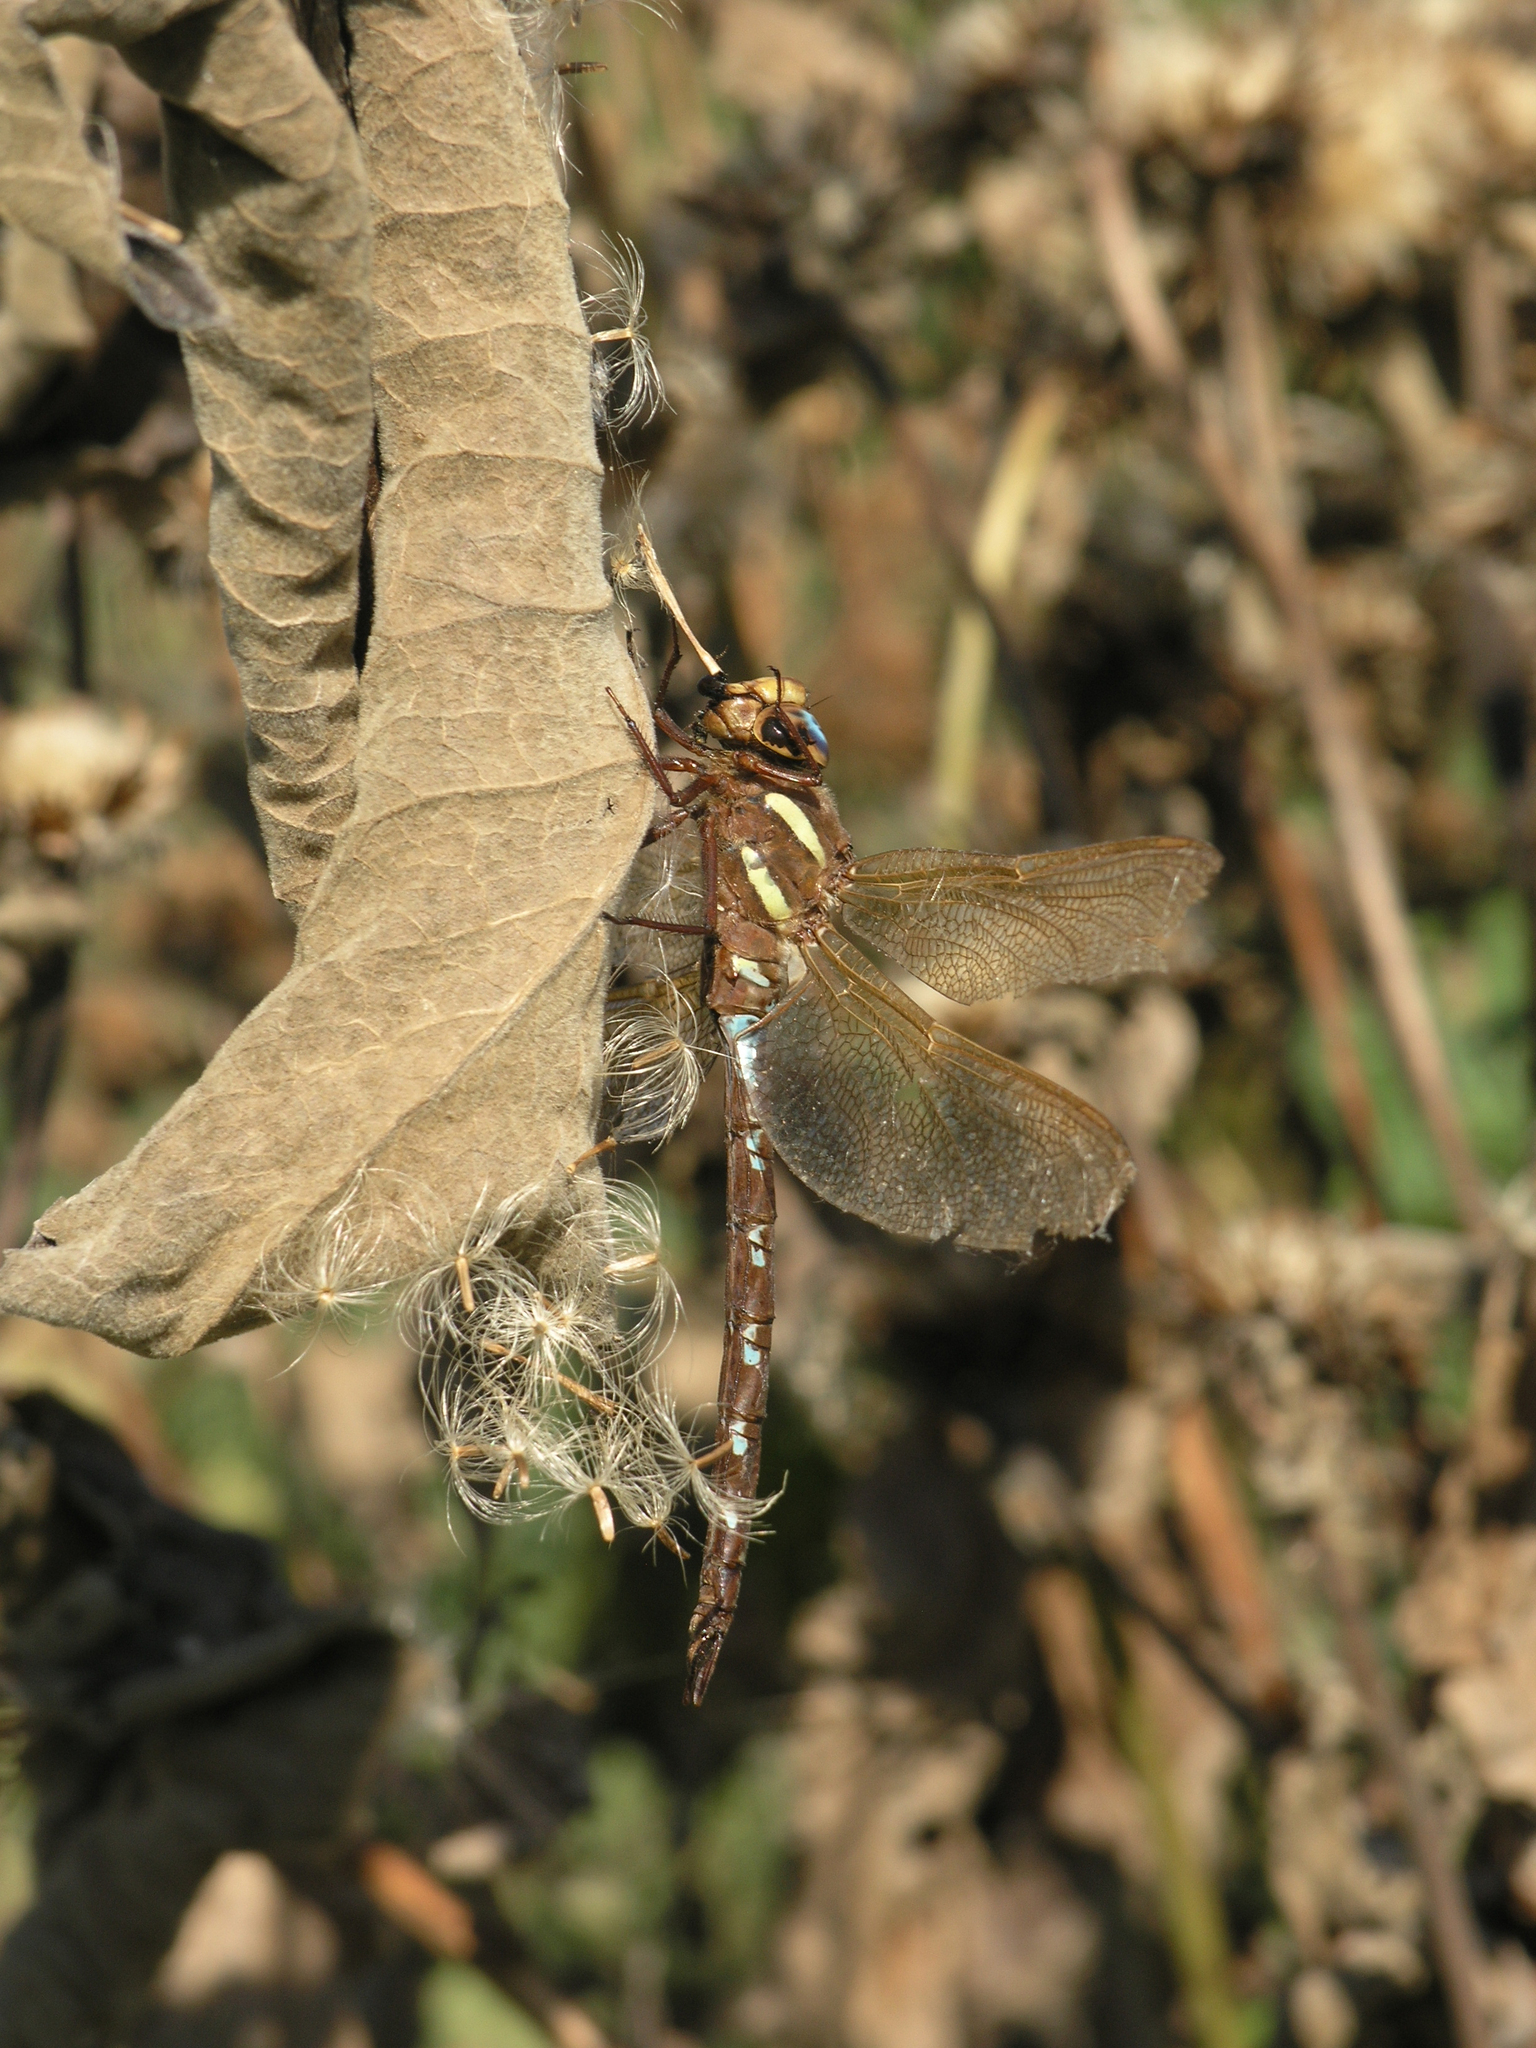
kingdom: Animalia
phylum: Arthropoda
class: Insecta
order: Odonata
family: Aeshnidae
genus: Aeshna
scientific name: Aeshna grandis
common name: Brown hawker
